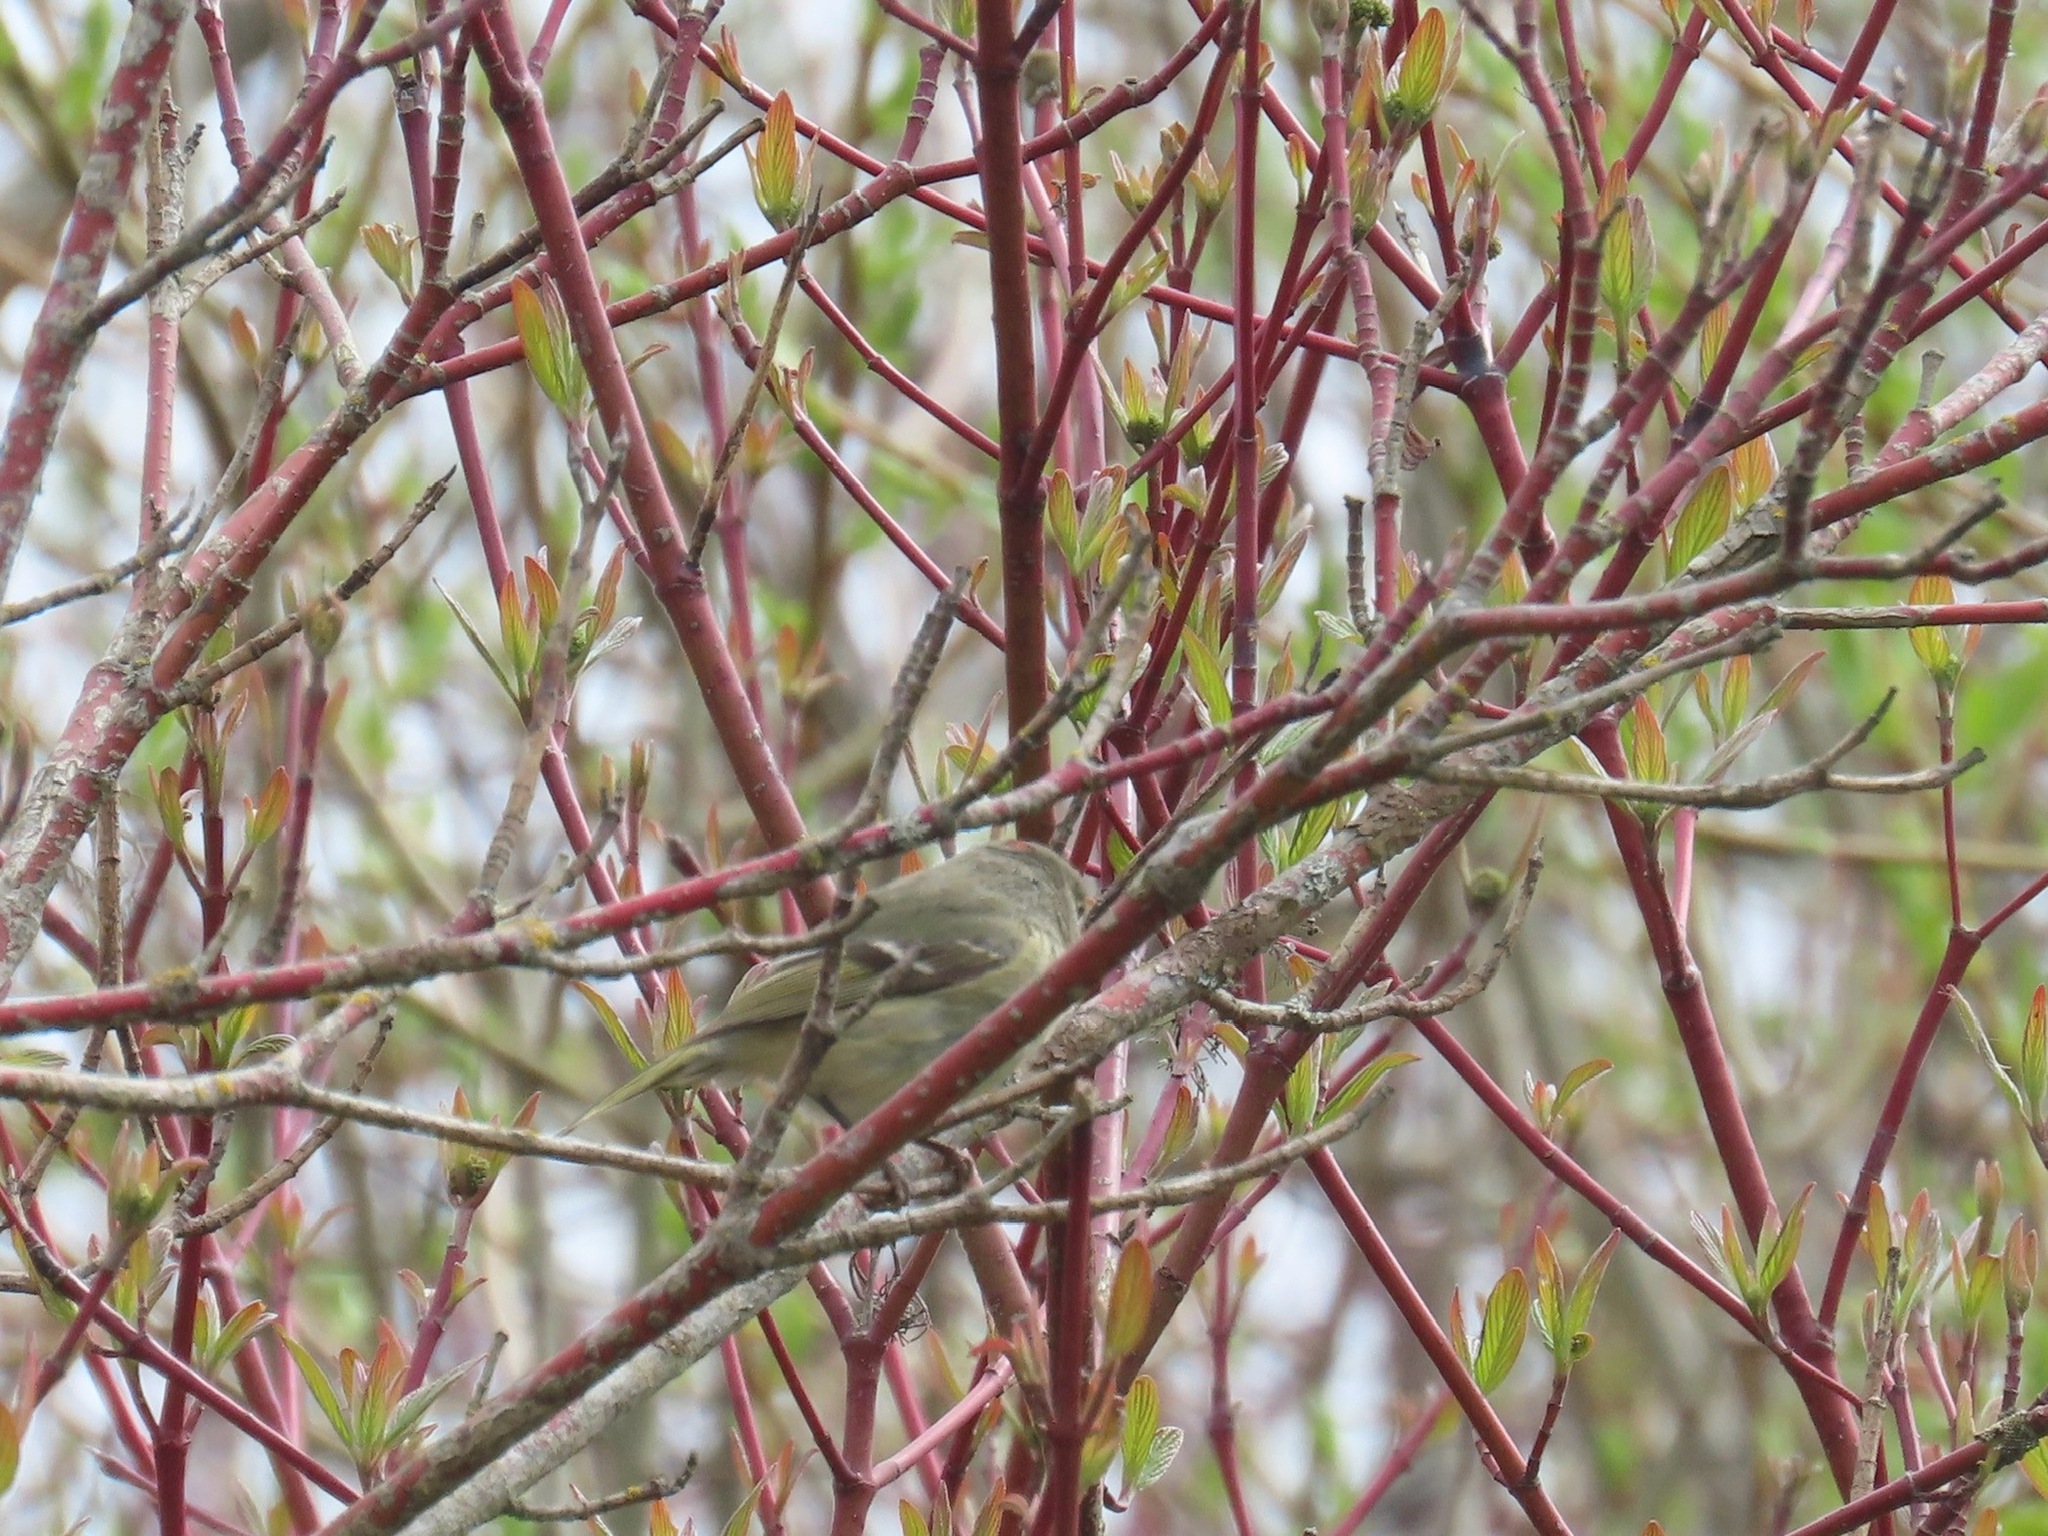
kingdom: Animalia
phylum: Chordata
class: Aves
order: Passeriformes
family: Regulidae
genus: Regulus
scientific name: Regulus calendula
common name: Ruby-crowned kinglet
